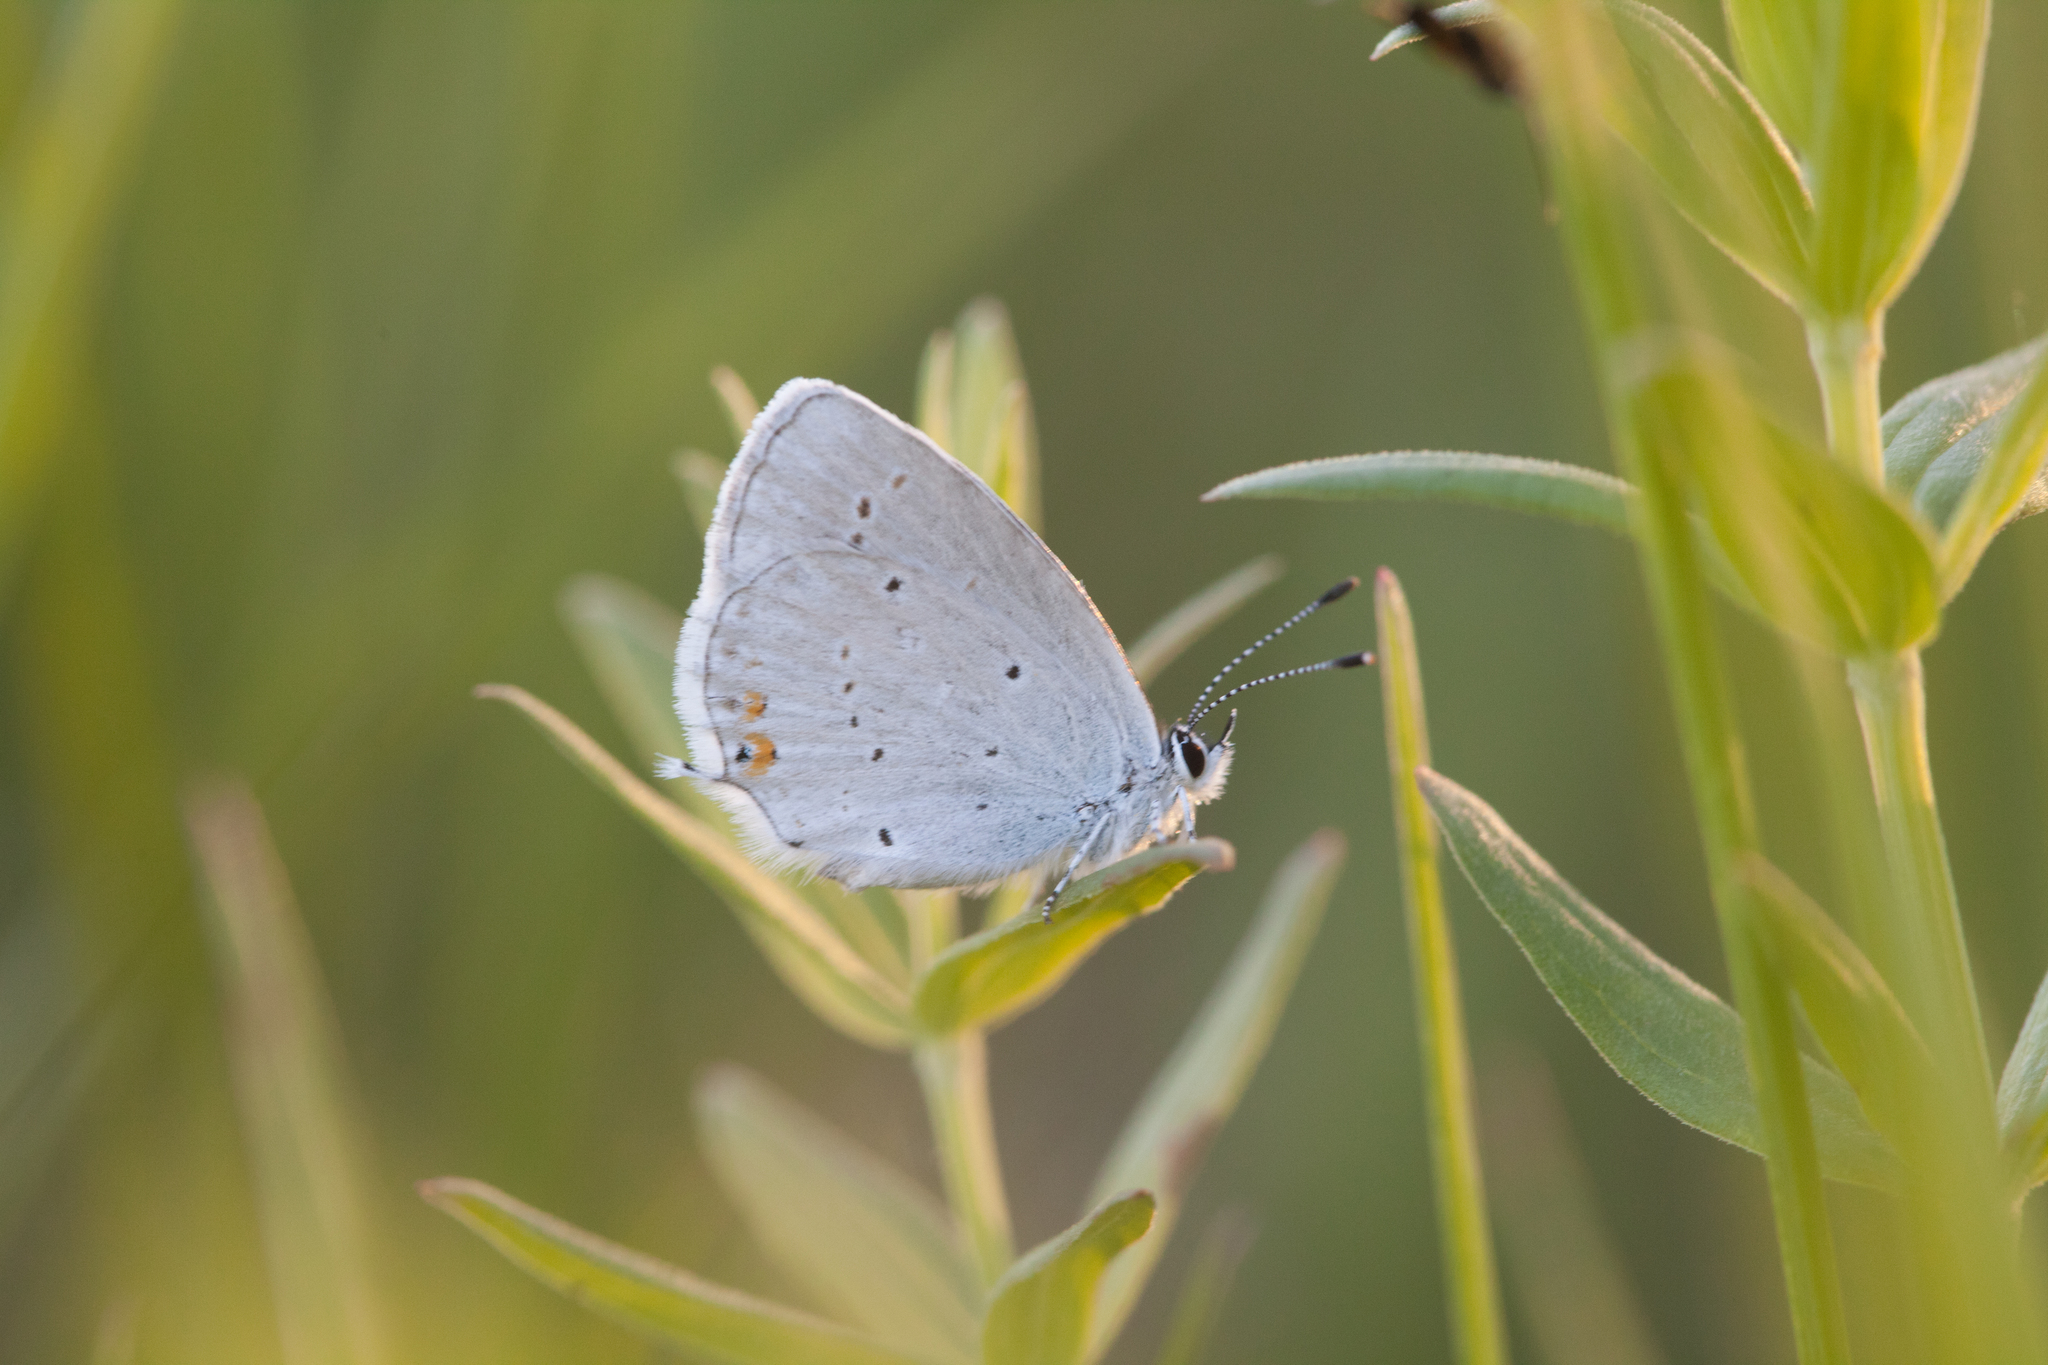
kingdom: Animalia
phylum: Arthropoda
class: Insecta
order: Lepidoptera
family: Lycaenidae
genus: Elkalyce
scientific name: Elkalyce argiades
